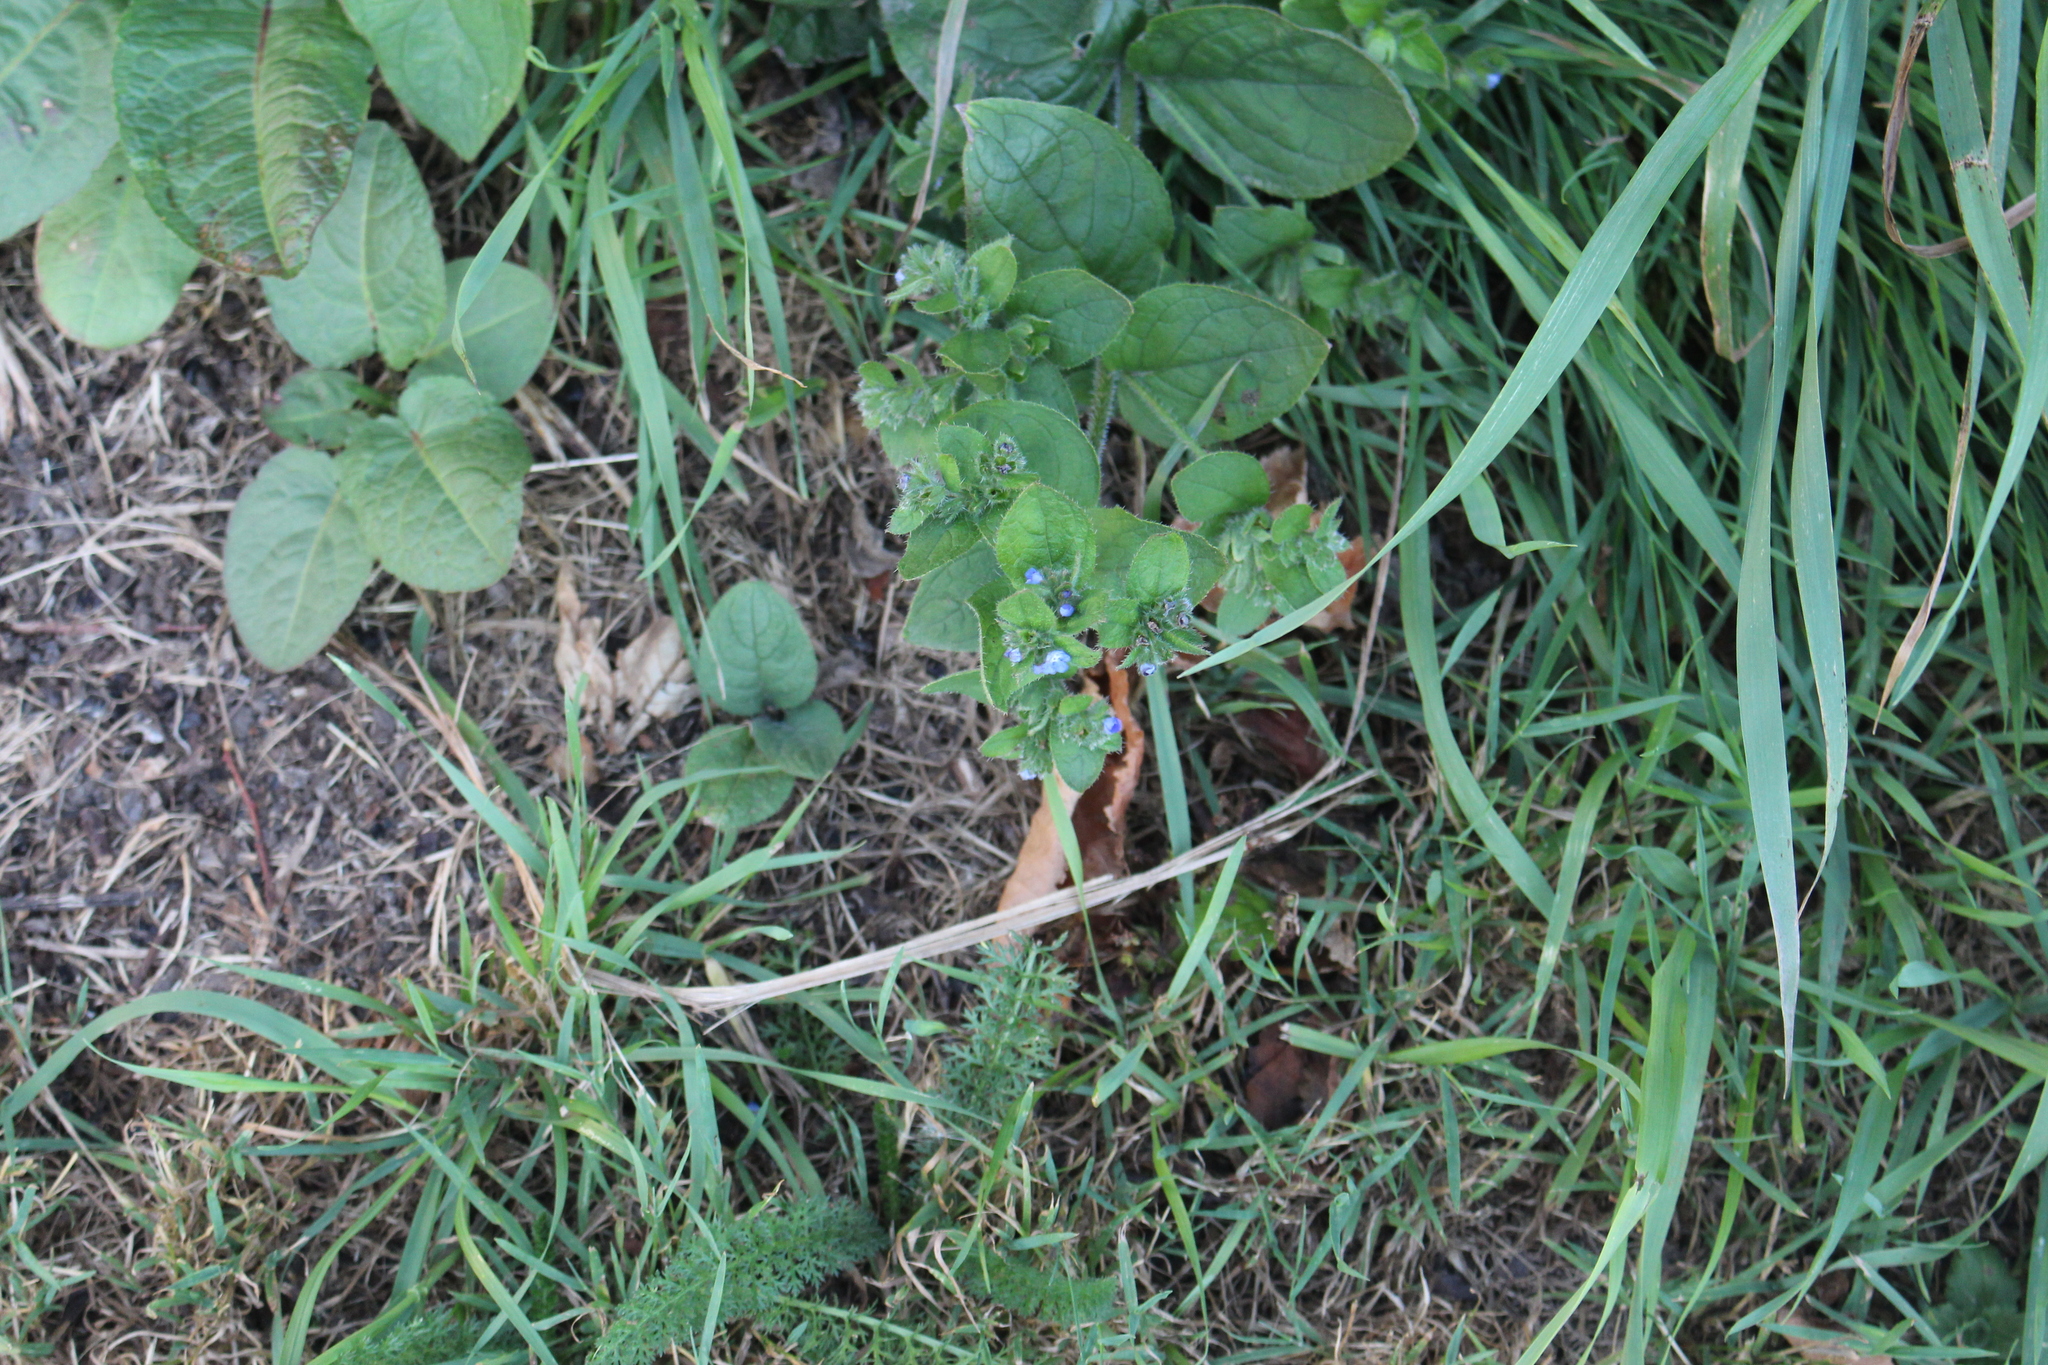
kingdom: Plantae
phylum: Tracheophyta
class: Magnoliopsida
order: Boraginales
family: Boraginaceae
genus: Pentaglottis
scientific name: Pentaglottis sempervirens
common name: Green alkanet
